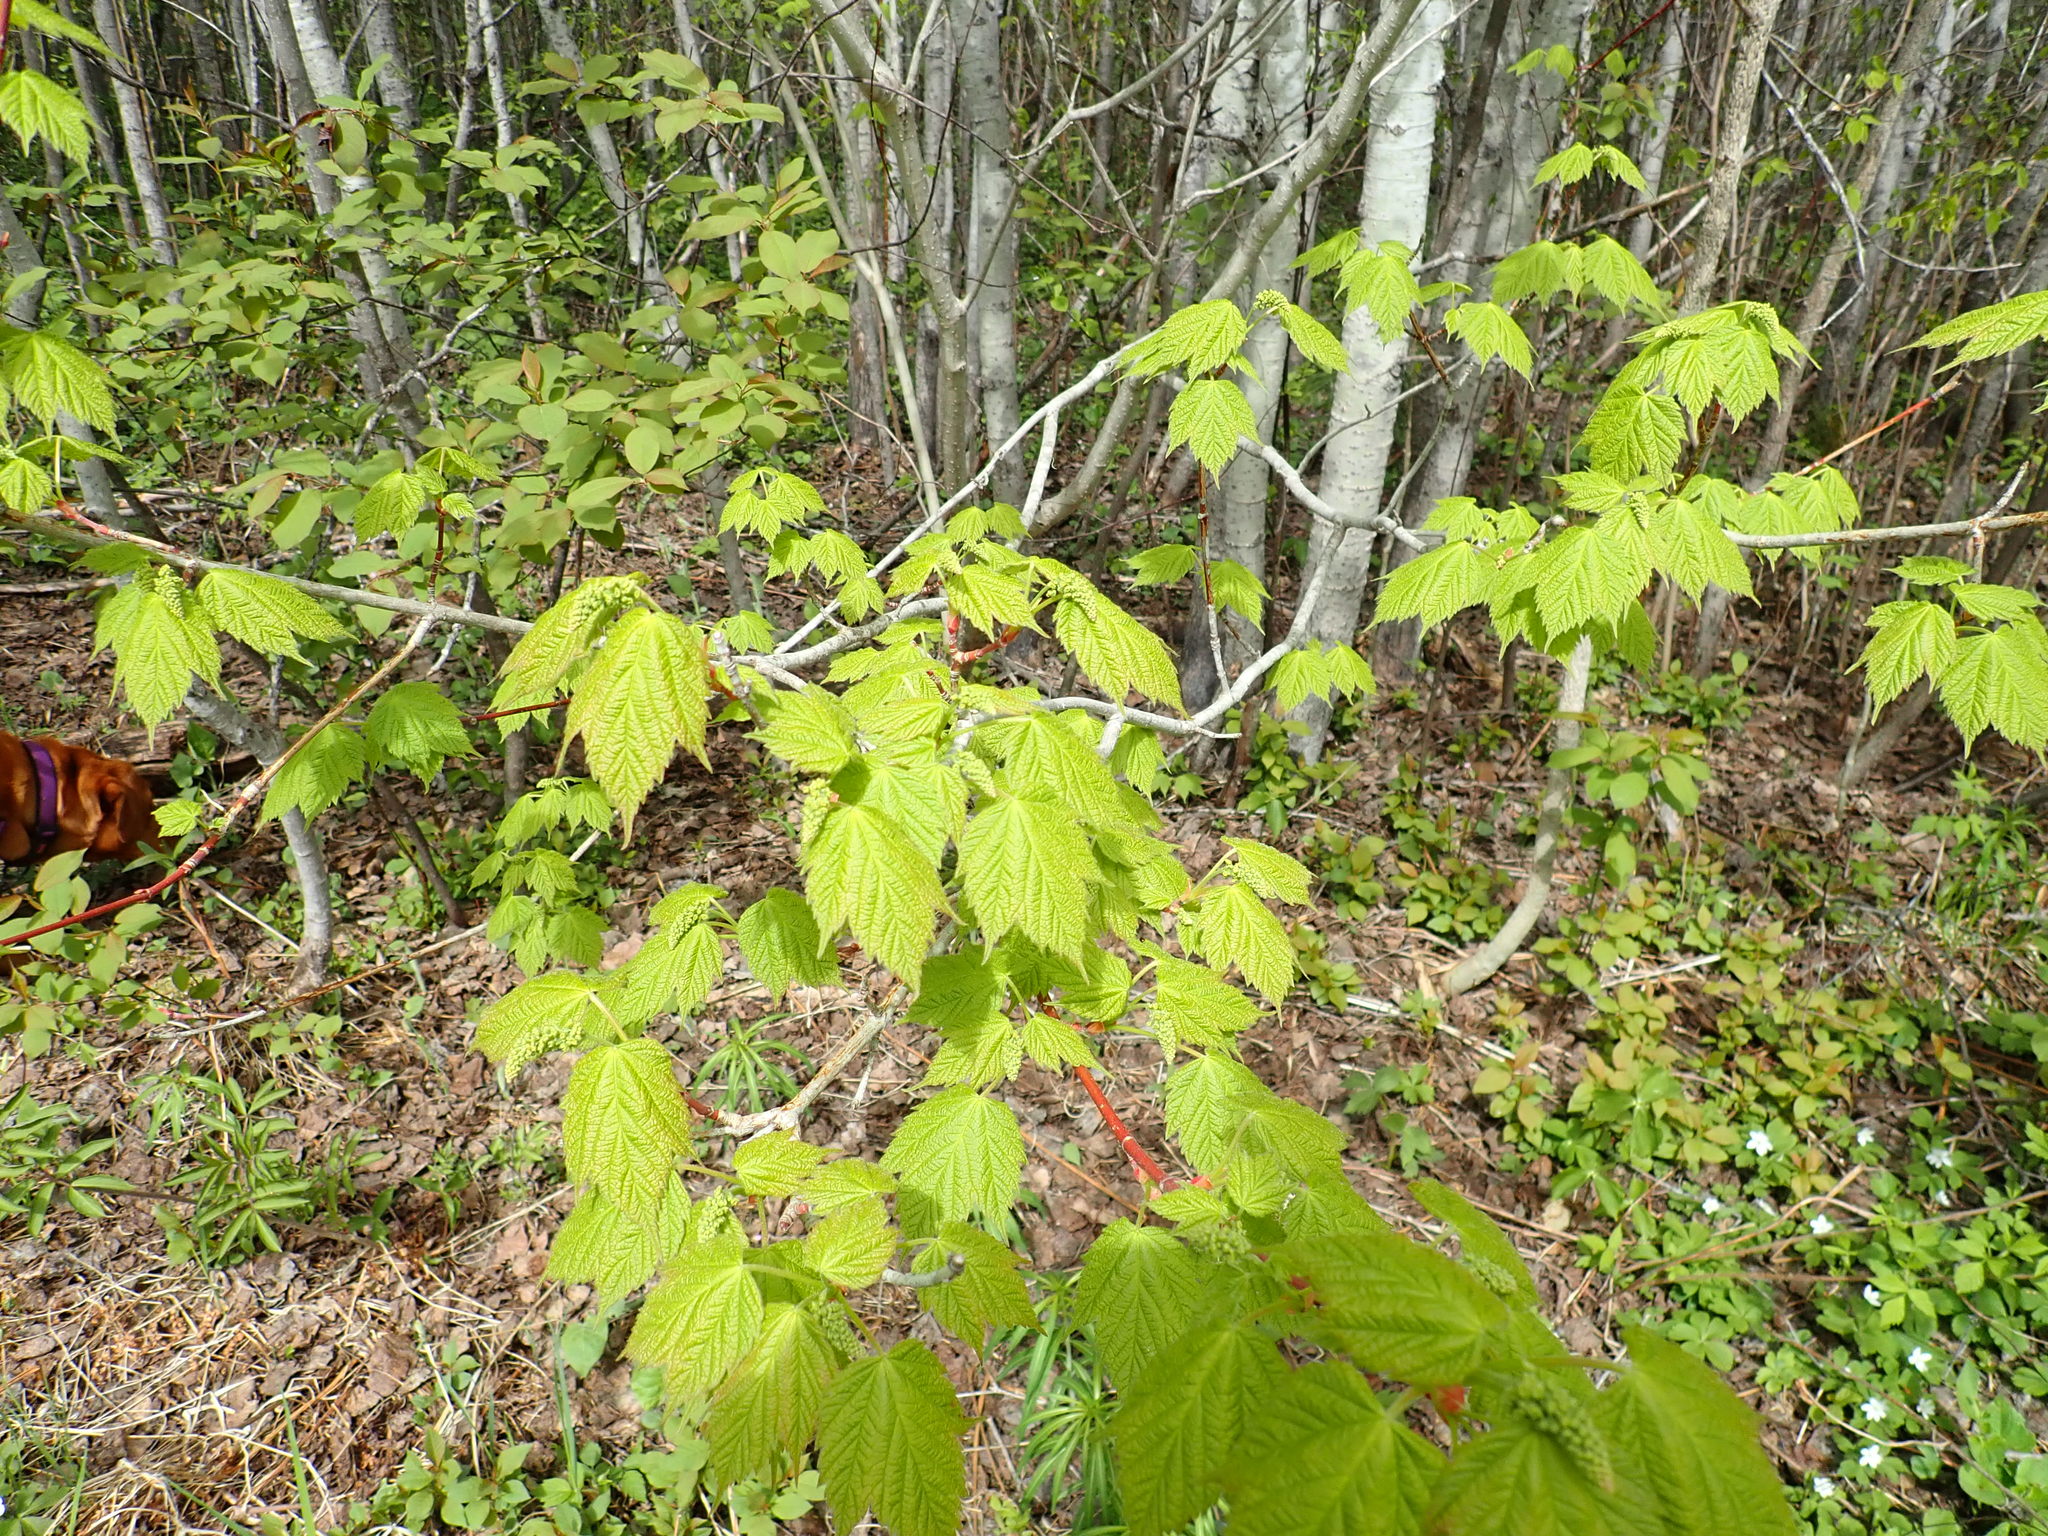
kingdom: Plantae
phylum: Tracheophyta
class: Magnoliopsida
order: Sapindales
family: Sapindaceae
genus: Acer
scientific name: Acer spicatum
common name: Mountain maple
